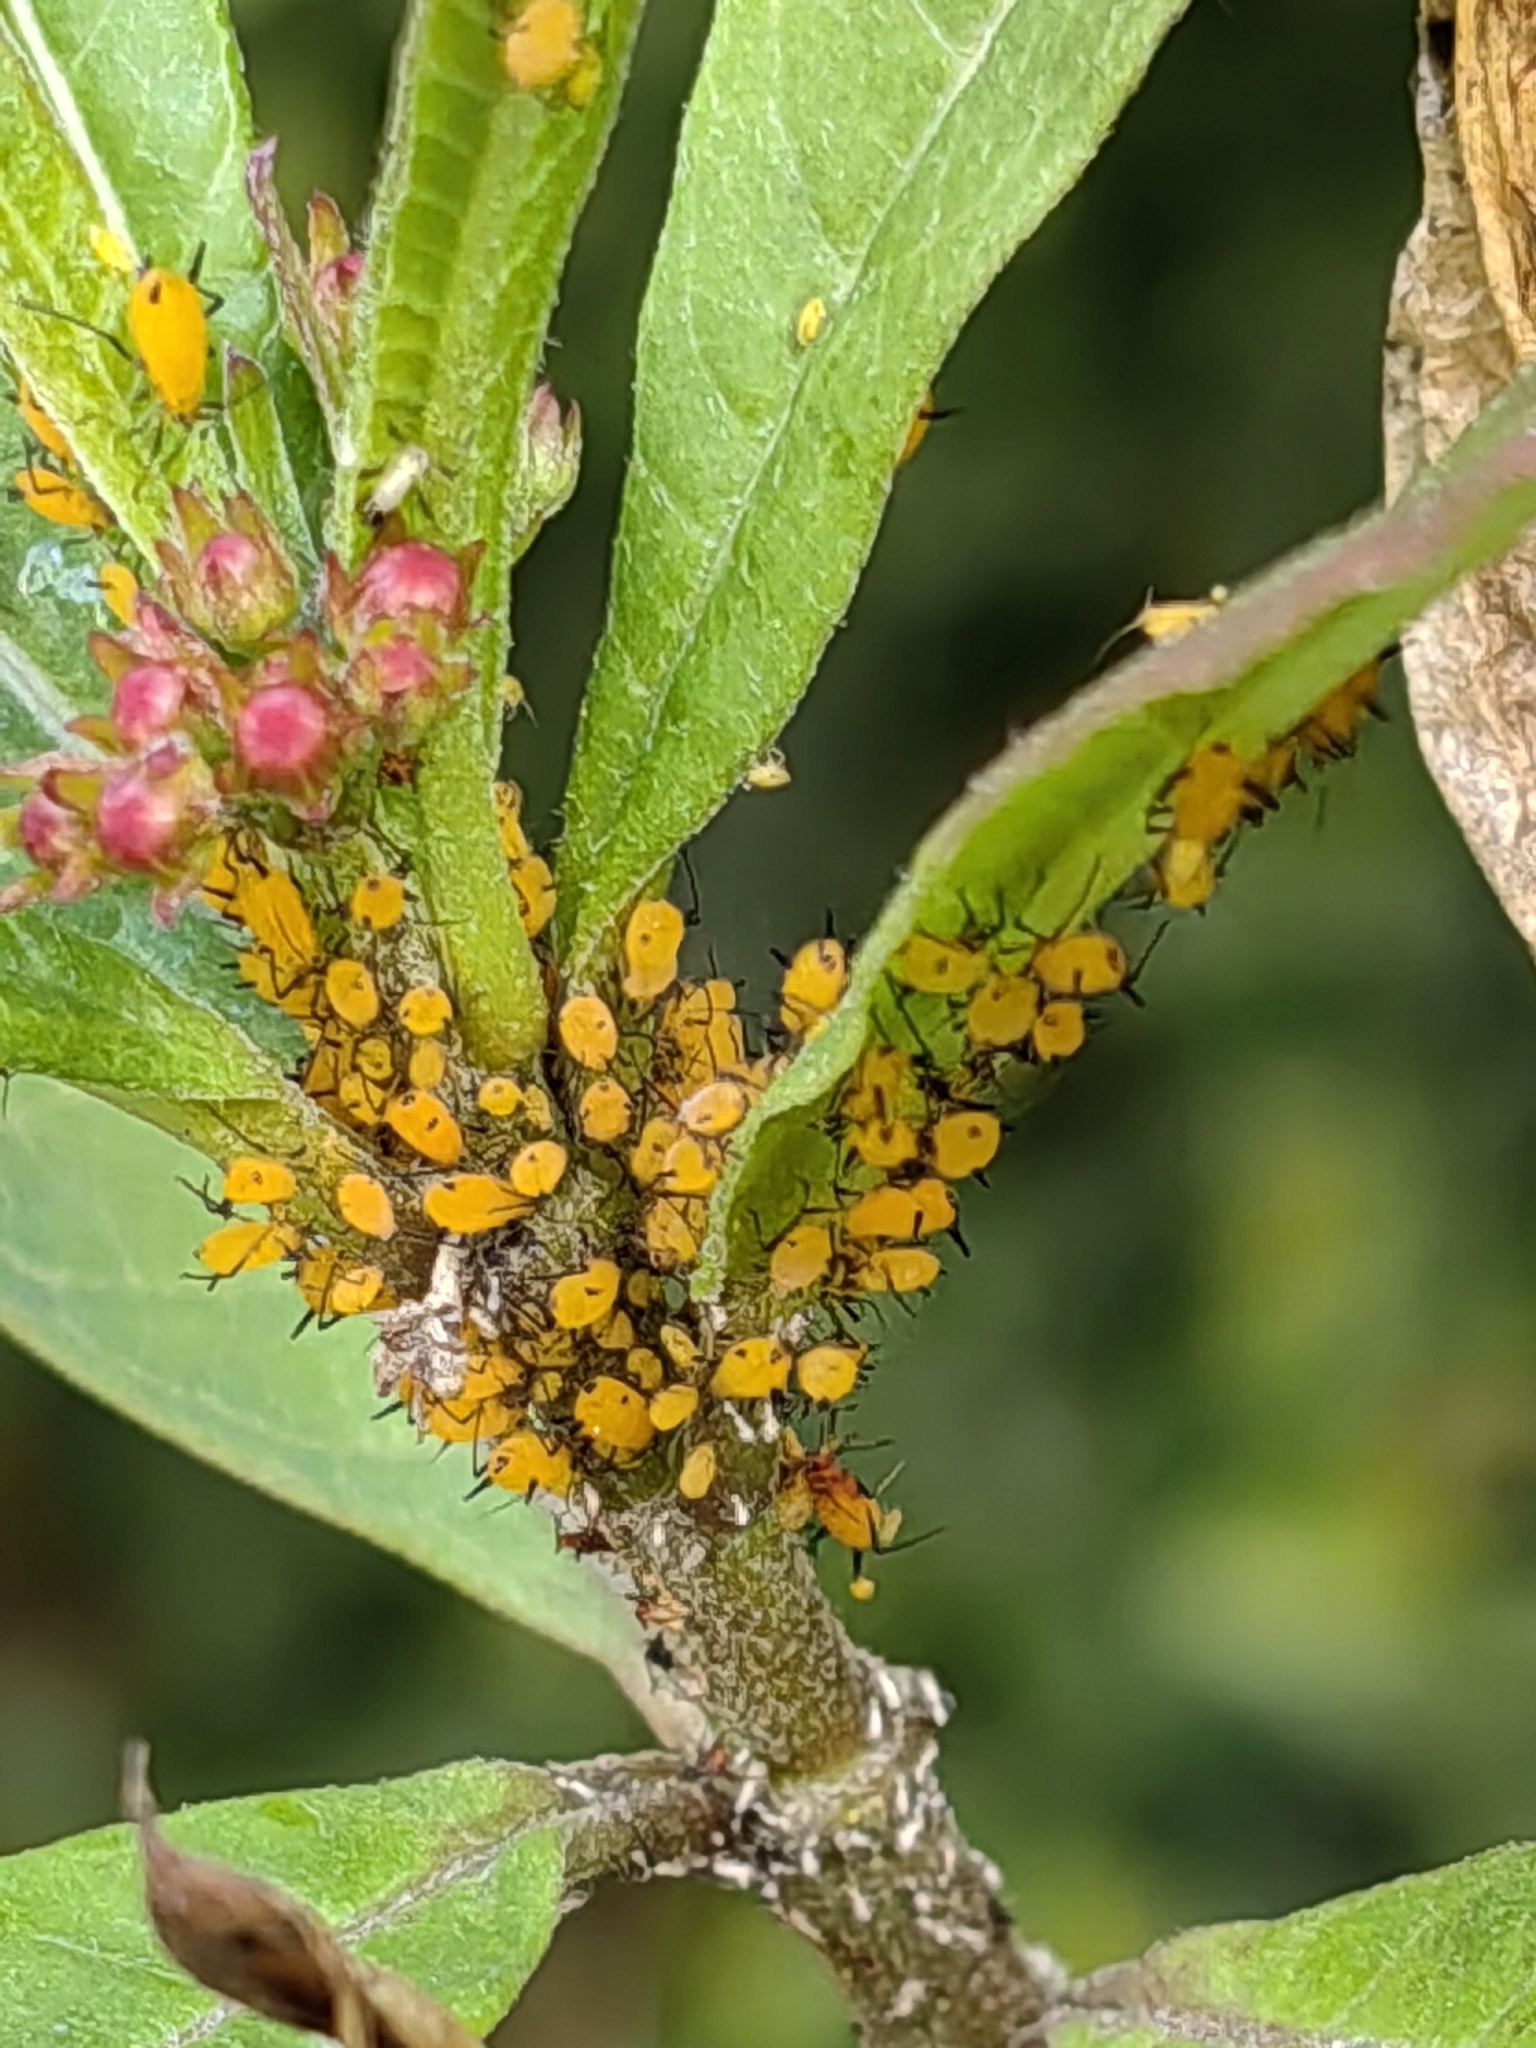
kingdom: Animalia
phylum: Arthropoda
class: Insecta
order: Hemiptera
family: Aphididae
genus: Aphis
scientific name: Aphis nerii
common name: Oleander aphid
